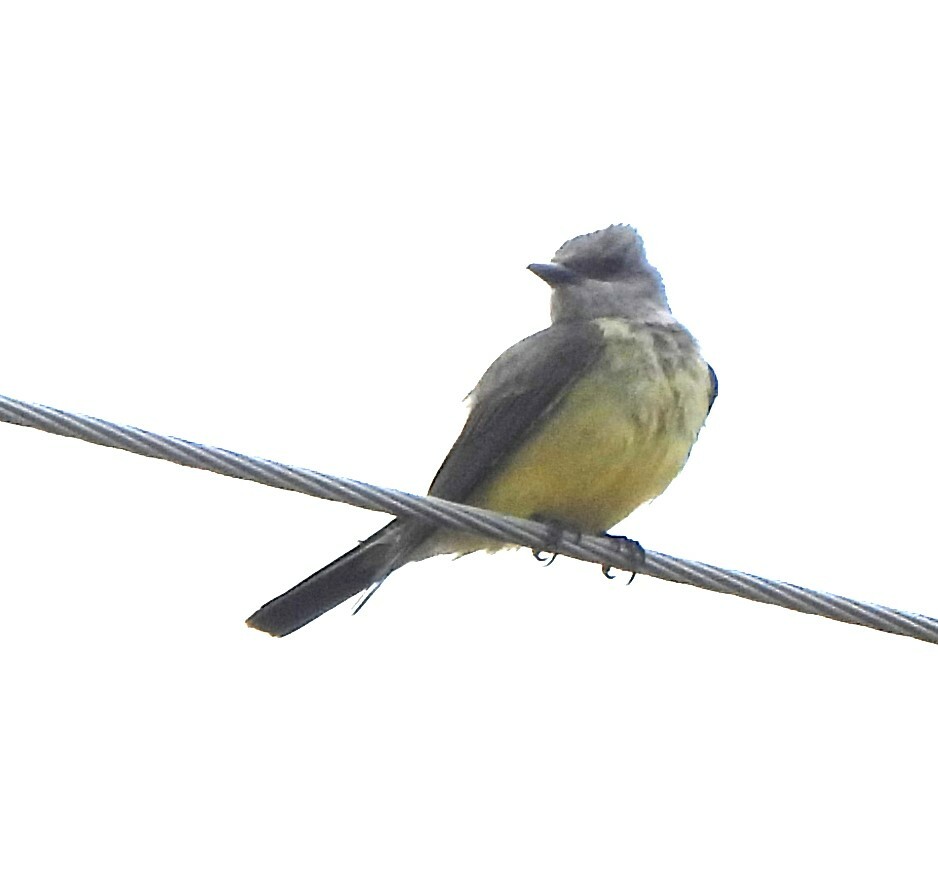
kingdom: Animalia
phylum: Chordata
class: Aves
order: Passeriformes
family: Tyrannidae
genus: Tyrannus
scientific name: Tyrannus verticalis
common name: Western kingbird
